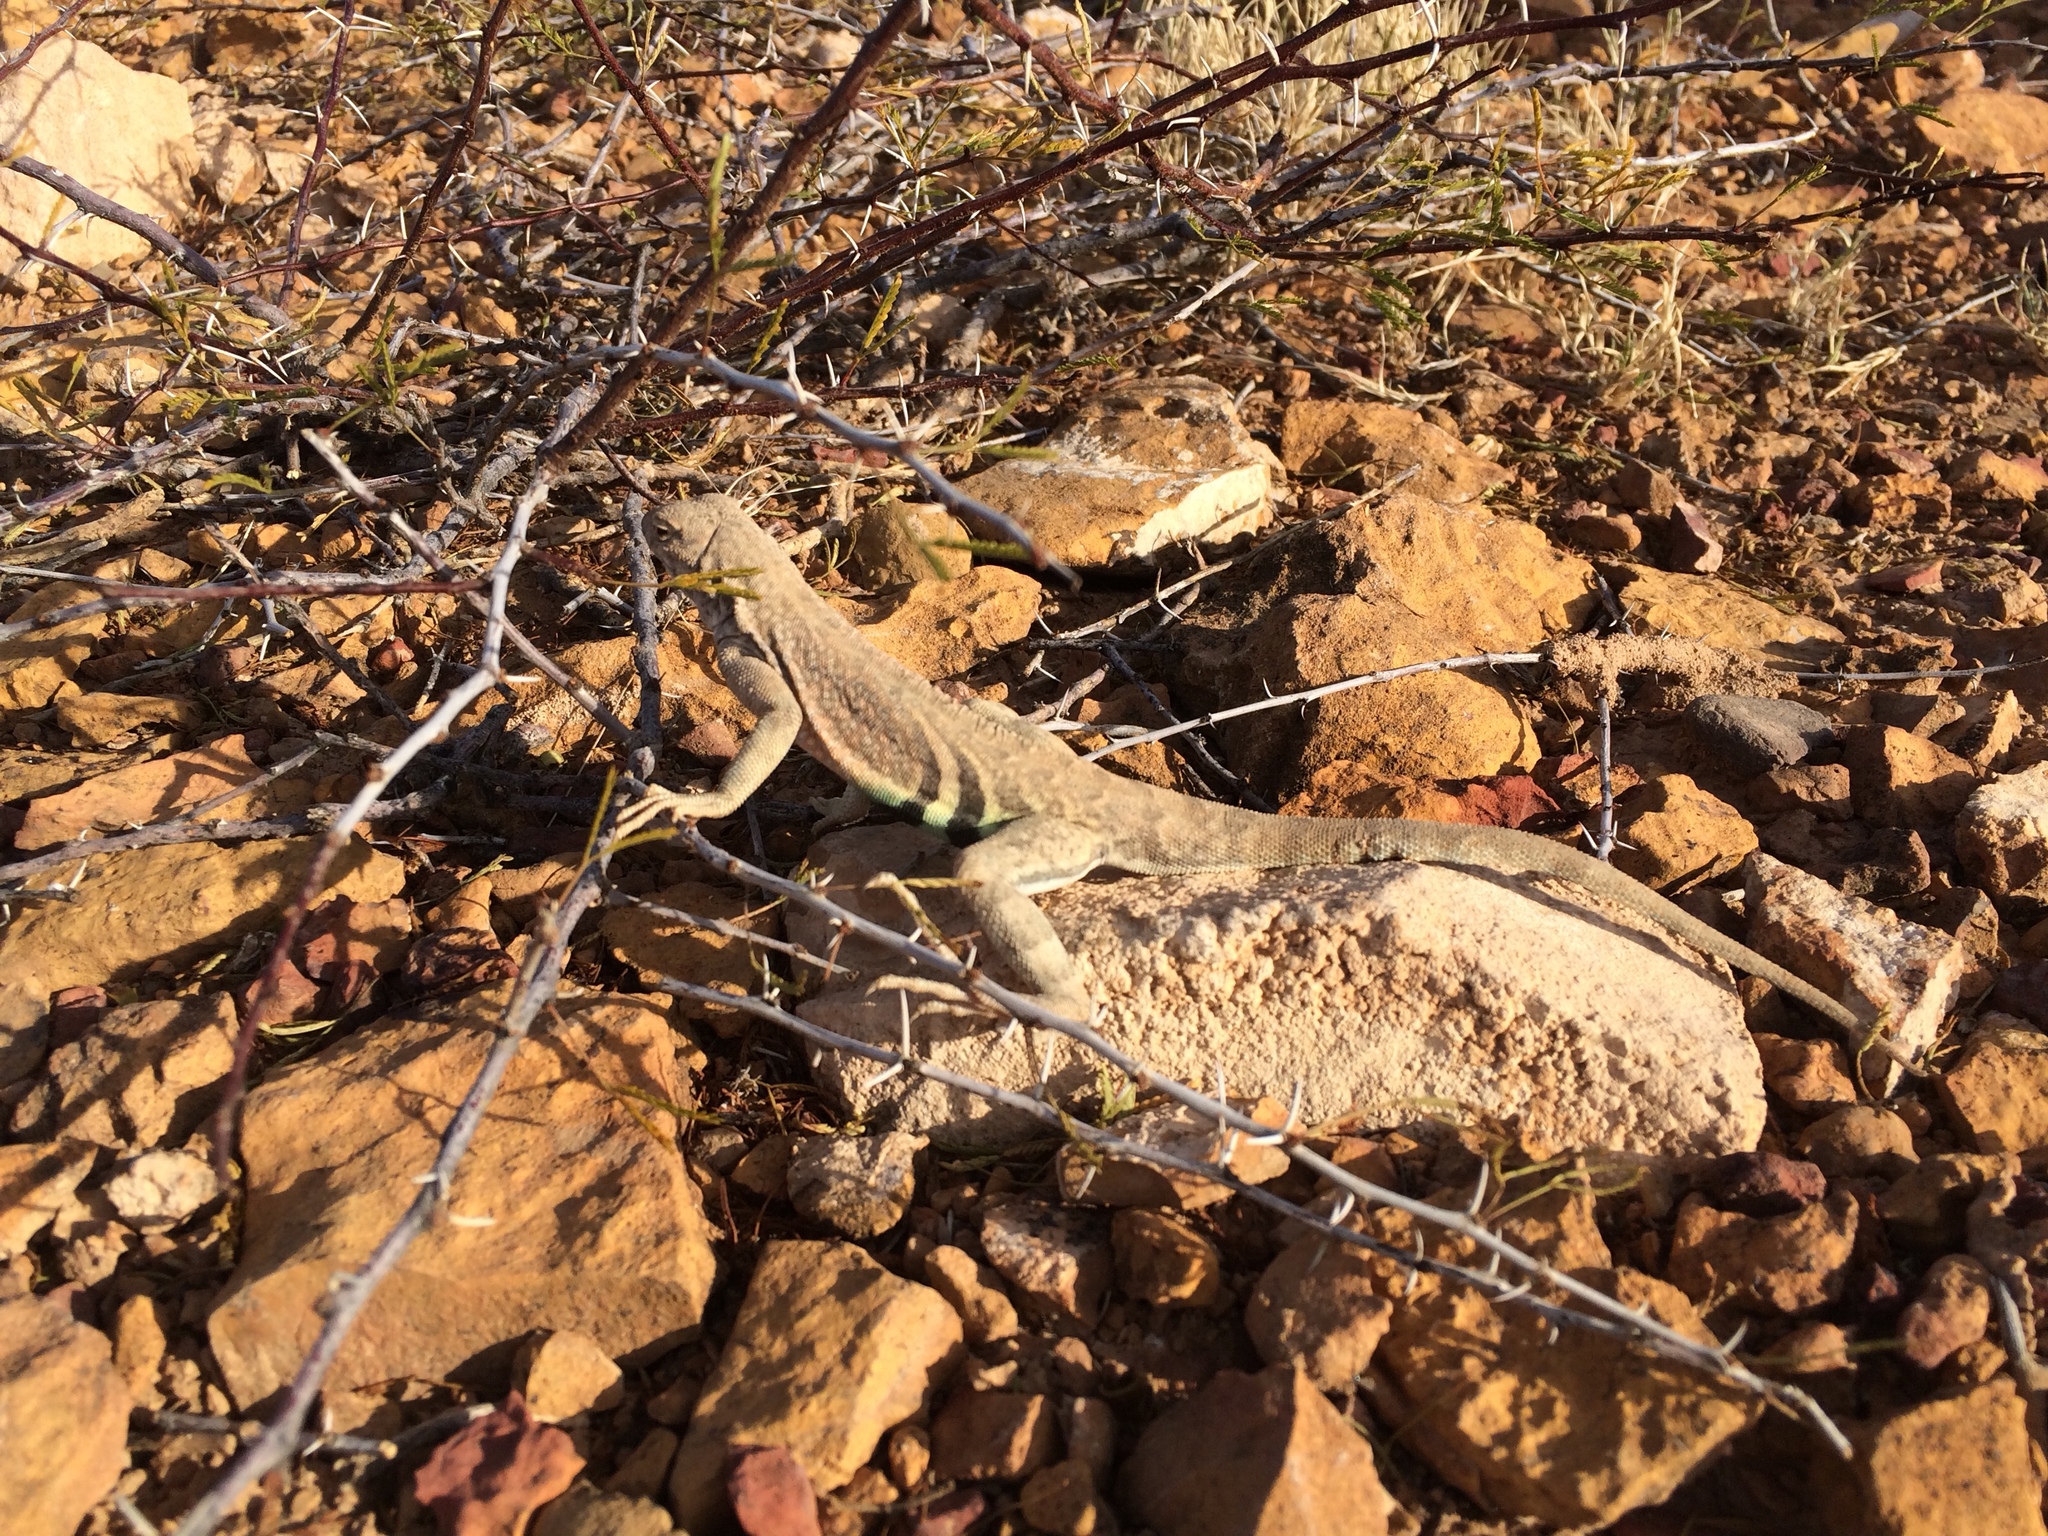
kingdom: Animalia
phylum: Chordata
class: Squamata
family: Phrynosomatidae
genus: Cophosaurus
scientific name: Cophosaurus texanus
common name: Greater earless lizard
